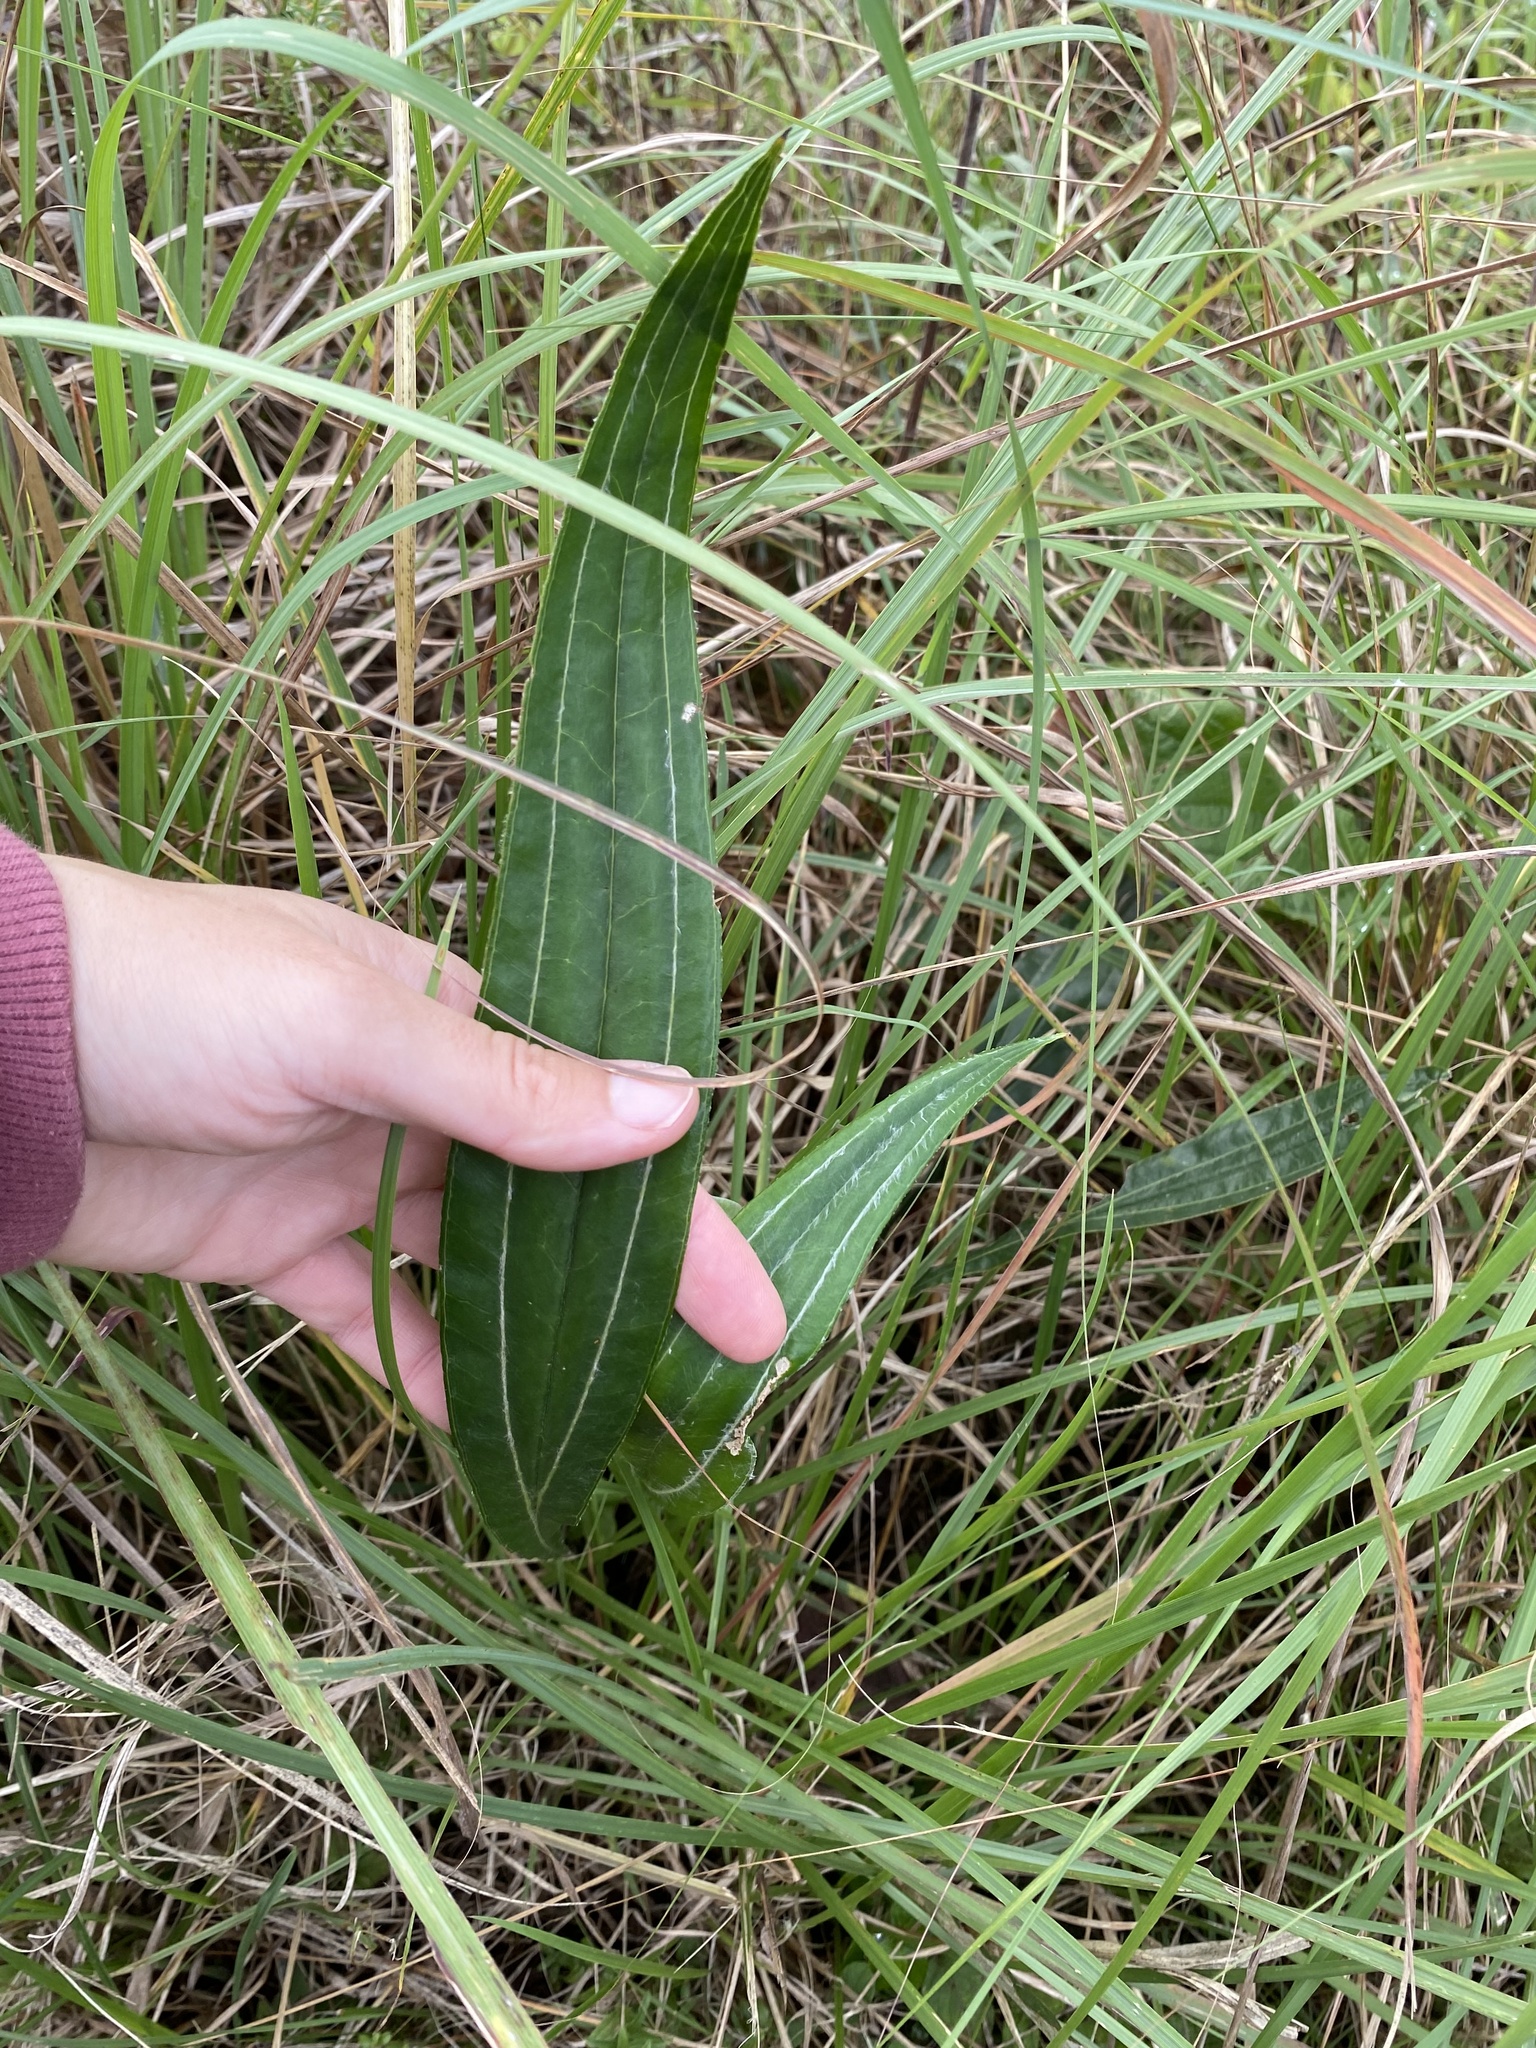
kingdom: Plantae
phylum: Tracheophyta
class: Magnoliopsida
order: Asterales
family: Asteraceae
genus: Helichrysum
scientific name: Helichrysum nudifolium
